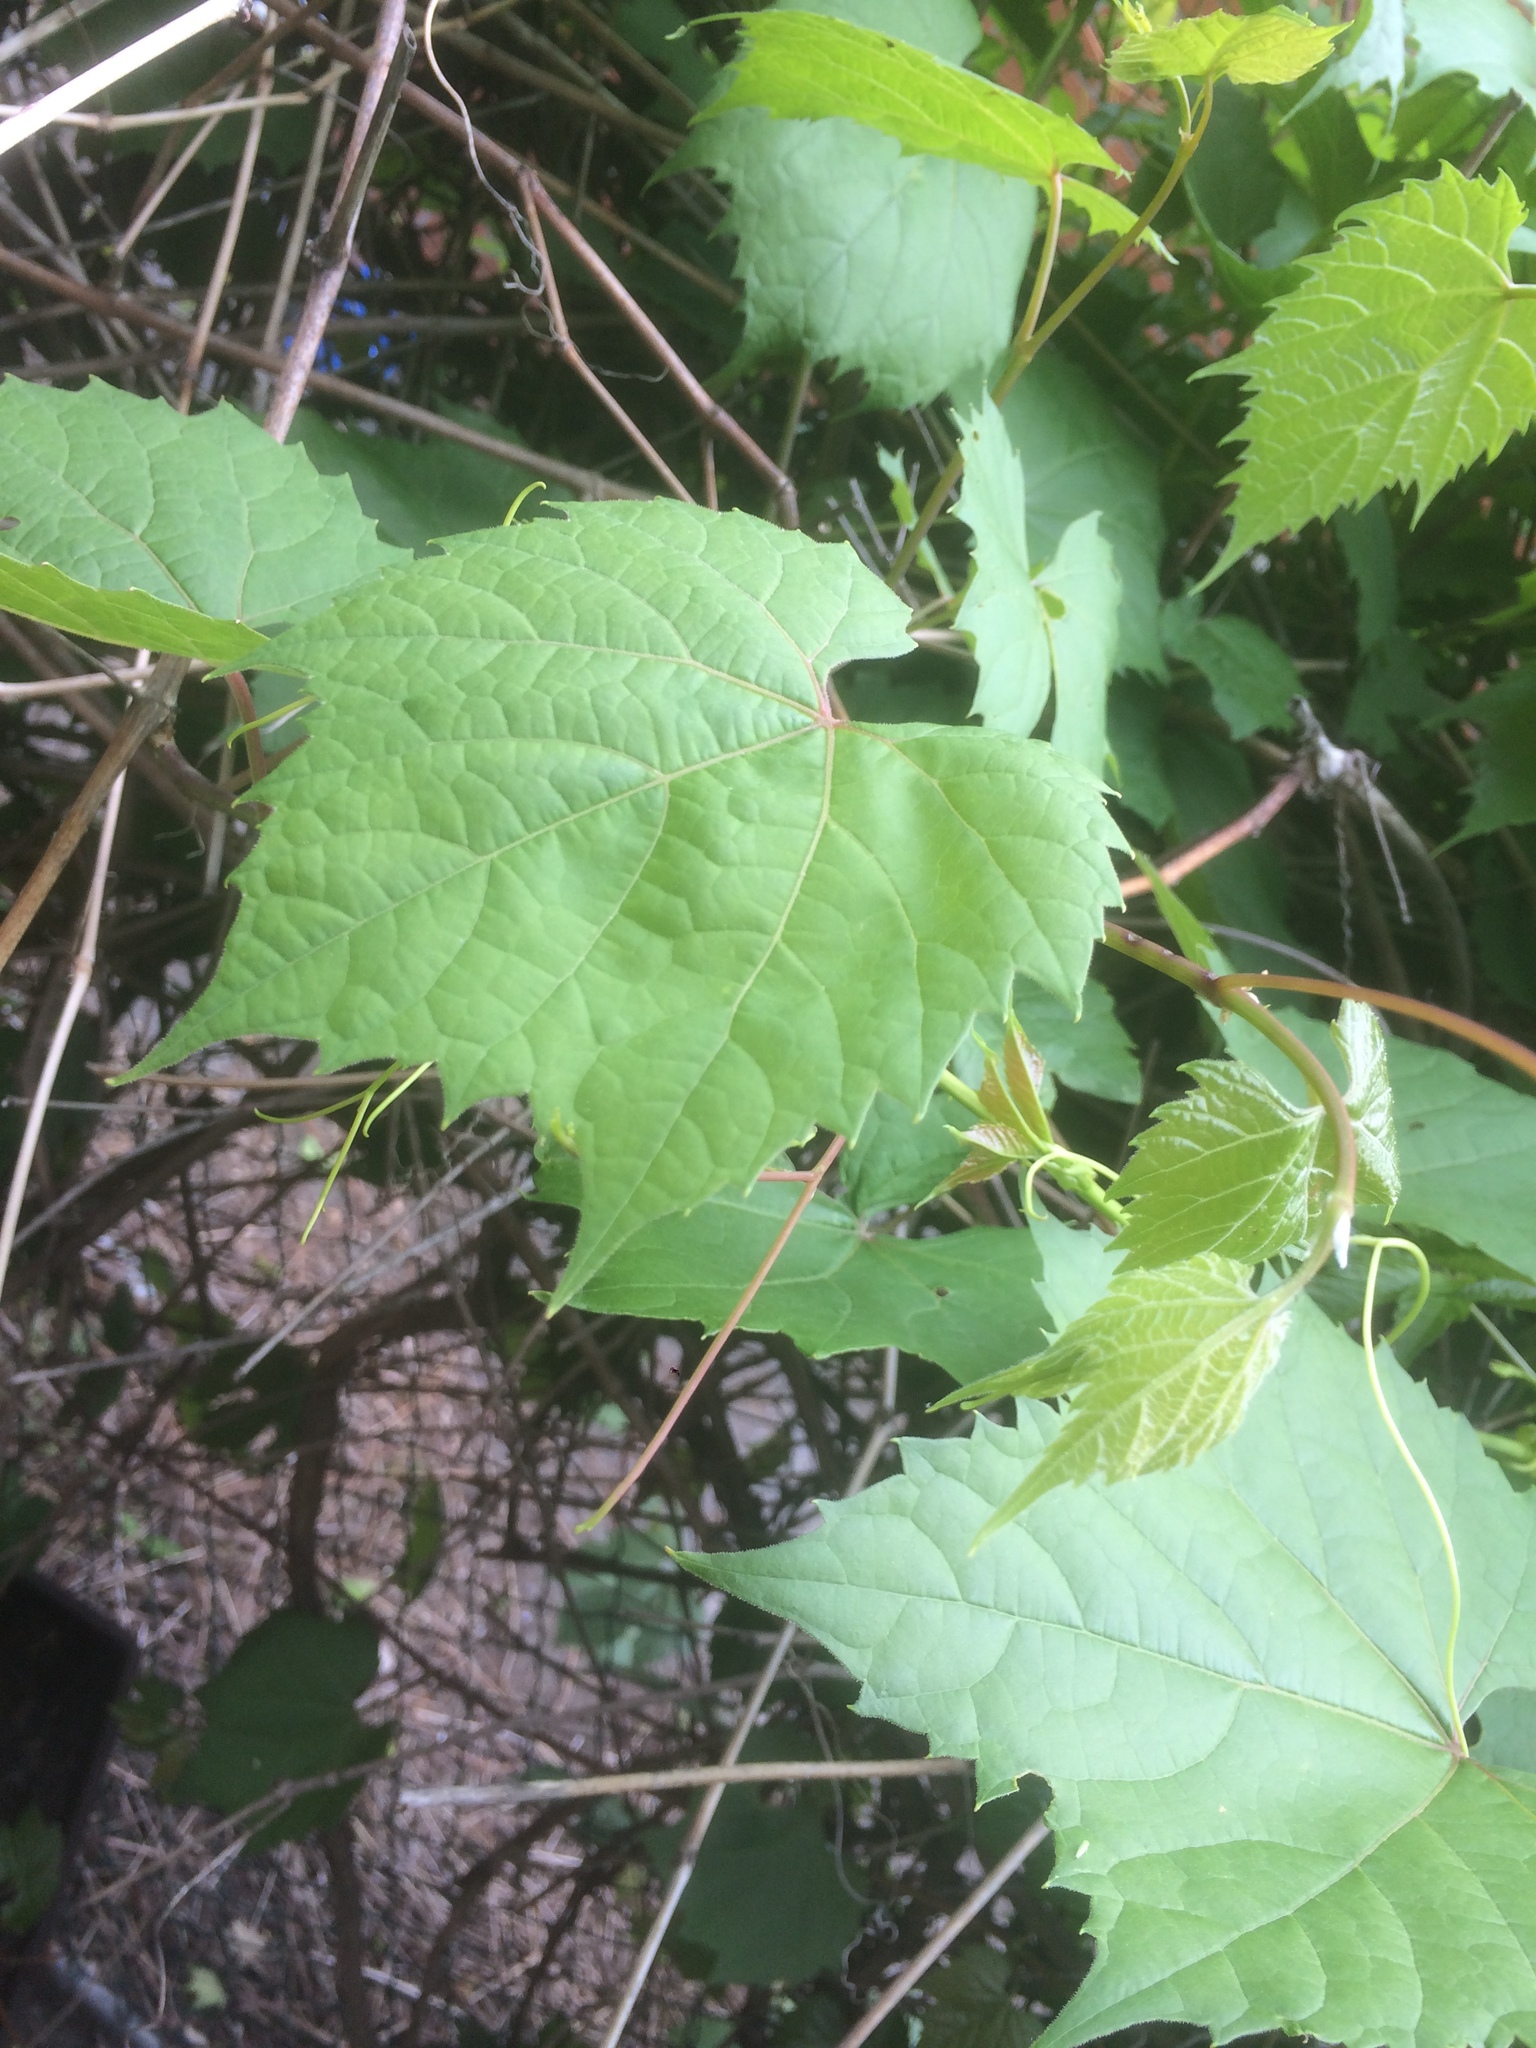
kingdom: Plantae
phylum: Tracheophyta
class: Magnoliopsida
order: Vitales
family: Vitaceae
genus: Vitis
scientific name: Vitis riparia
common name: Frost grape
